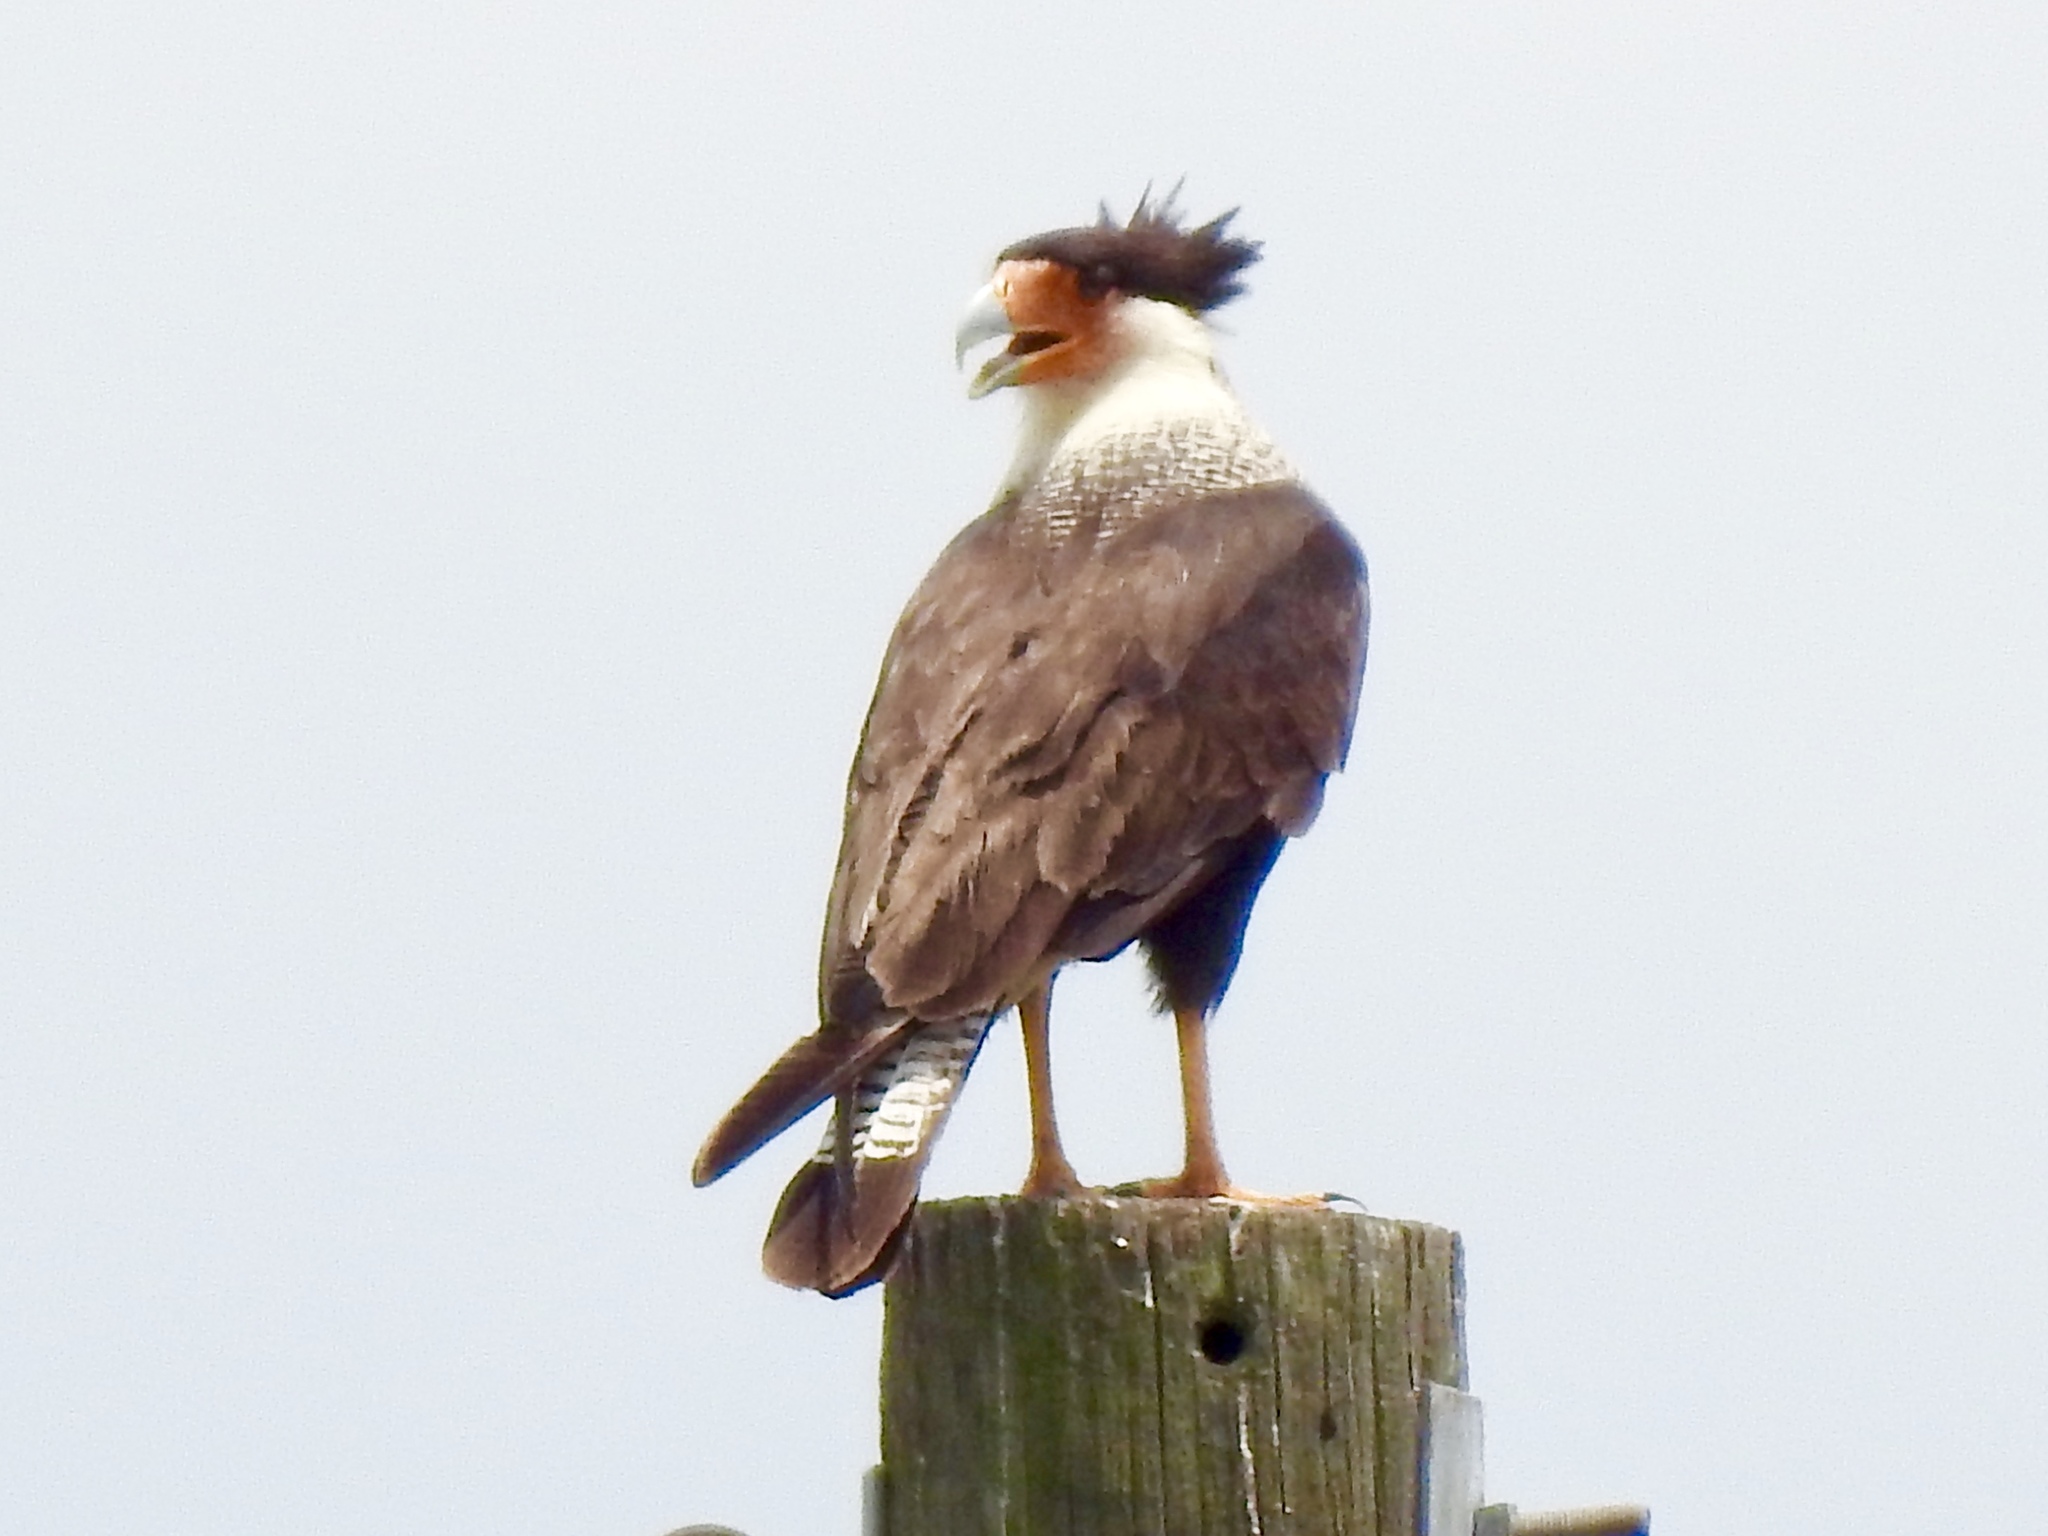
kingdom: Animalia
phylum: Chordata
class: Aves
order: Falconiformes
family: Falconidae
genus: Caracara
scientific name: Caracara plancus
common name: Southern caracara
